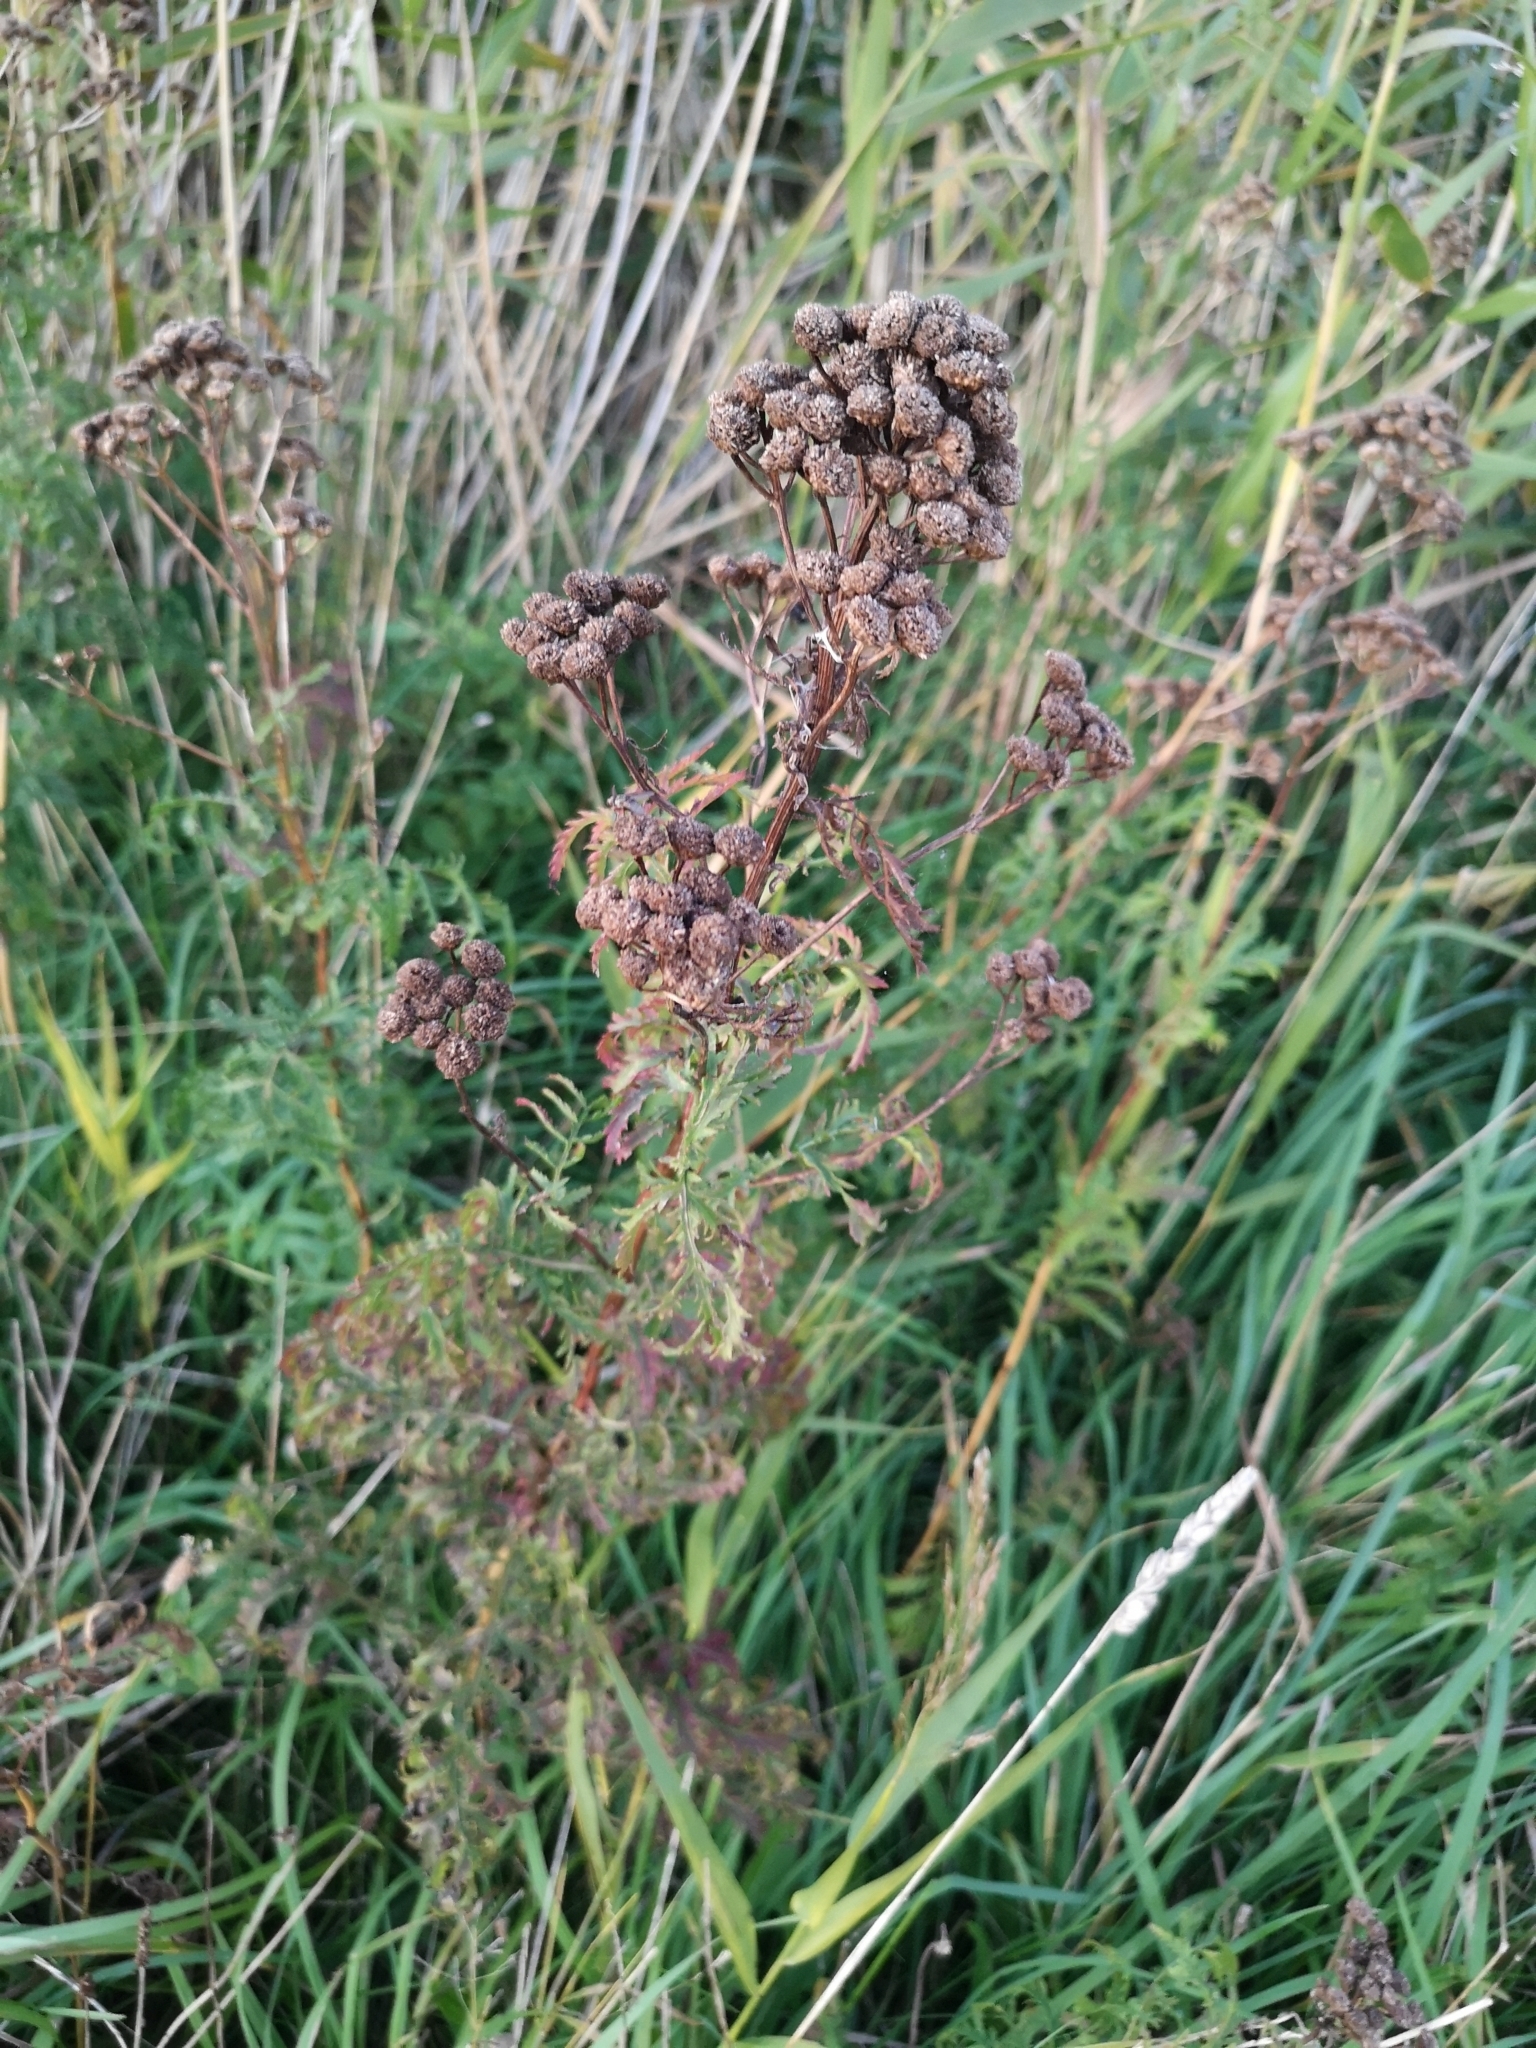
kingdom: Plantae
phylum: Tracheophyta
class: Magnoliopsida
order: Asterales
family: Asteraceae
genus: Tanacetum
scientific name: Tanacetum vulgare
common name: Common tansy
